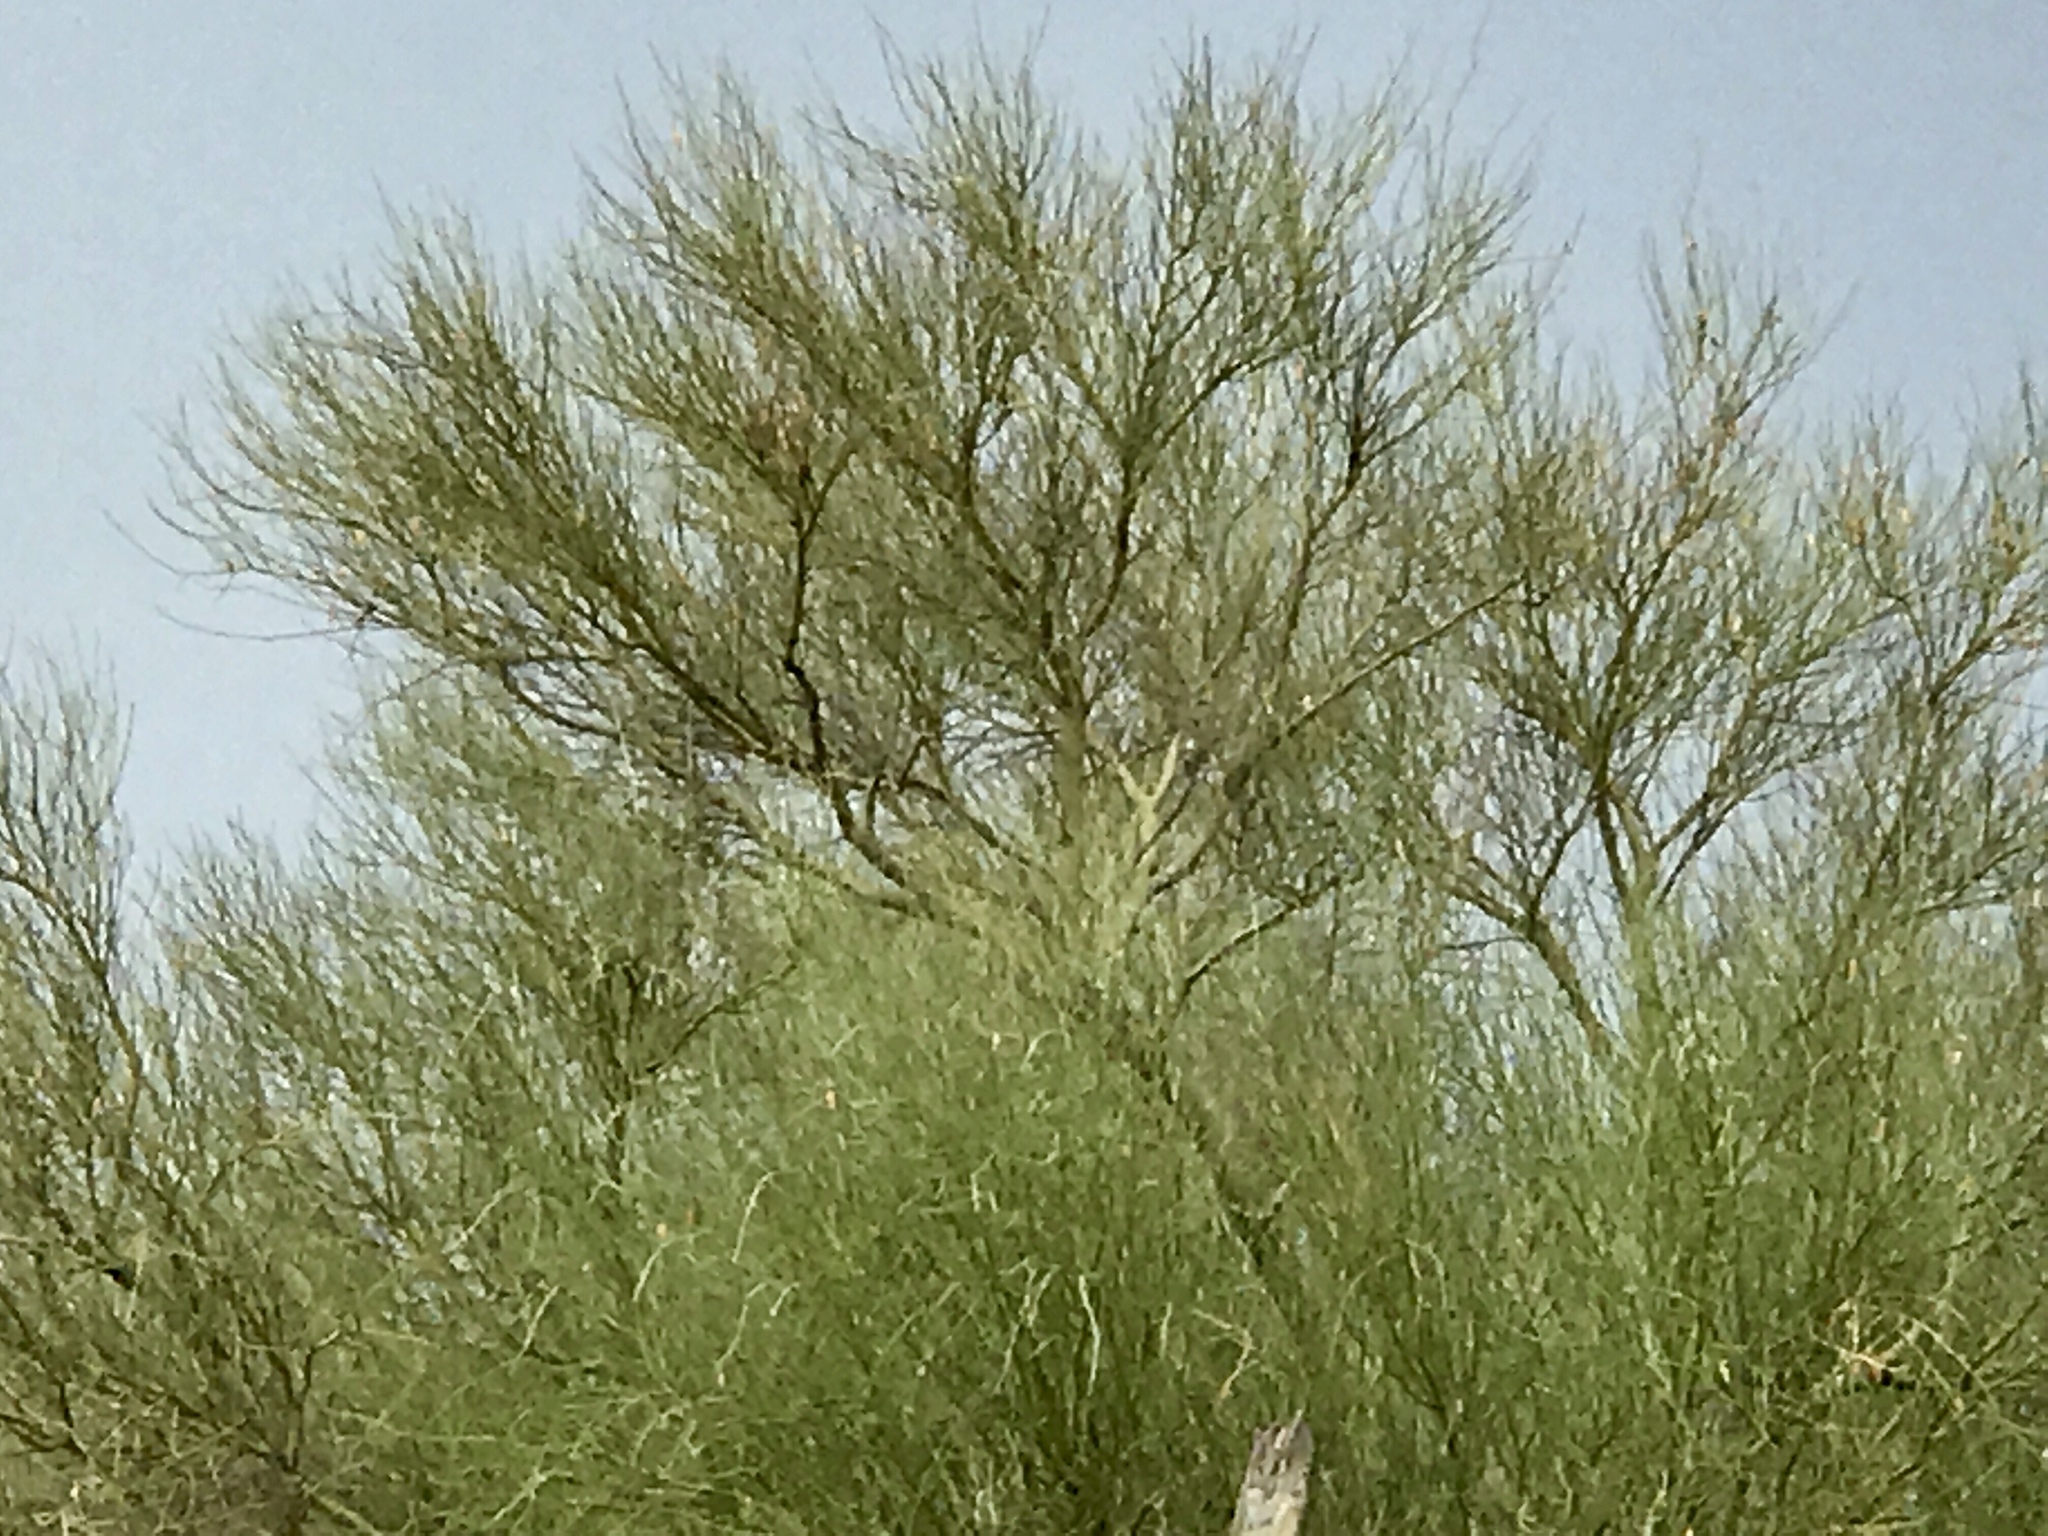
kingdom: Plantae
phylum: Tracheophyta
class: Magnoliopsida
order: Fabales
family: Fabaceae
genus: Parkinsonia
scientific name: Parkinsonia florida
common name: Blue paloverde
